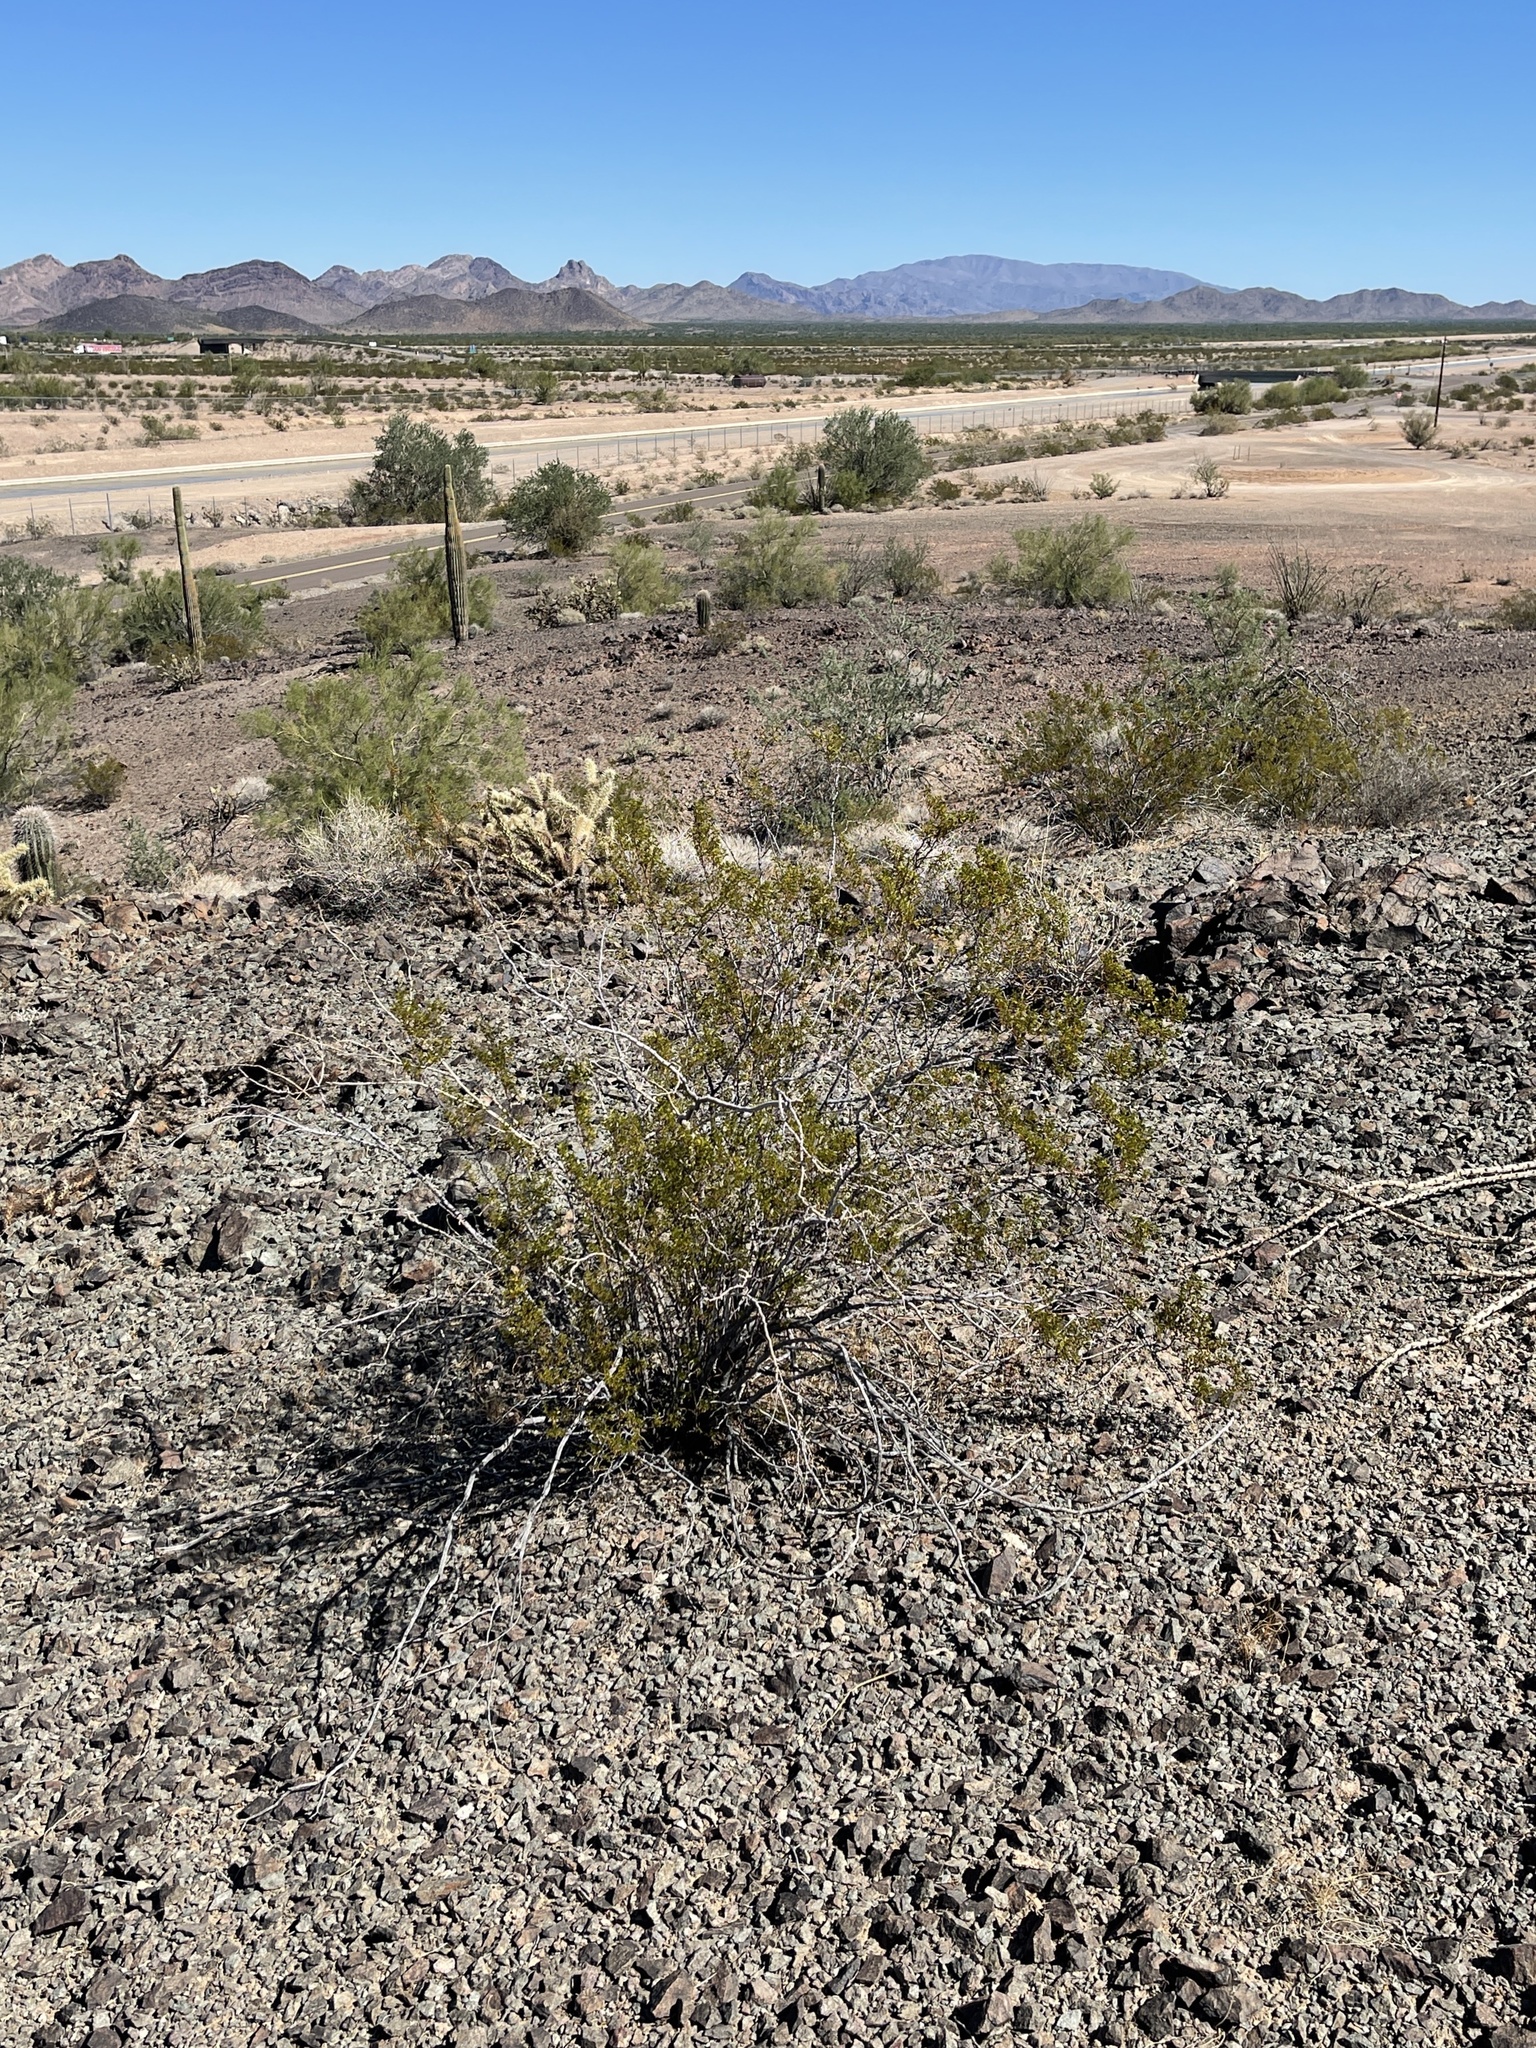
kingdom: Plantae
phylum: Tracheophyta
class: Magnoliopsida
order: Zygophyllales
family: Zygophyllaceae
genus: Larrea
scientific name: Larrea tridentata
